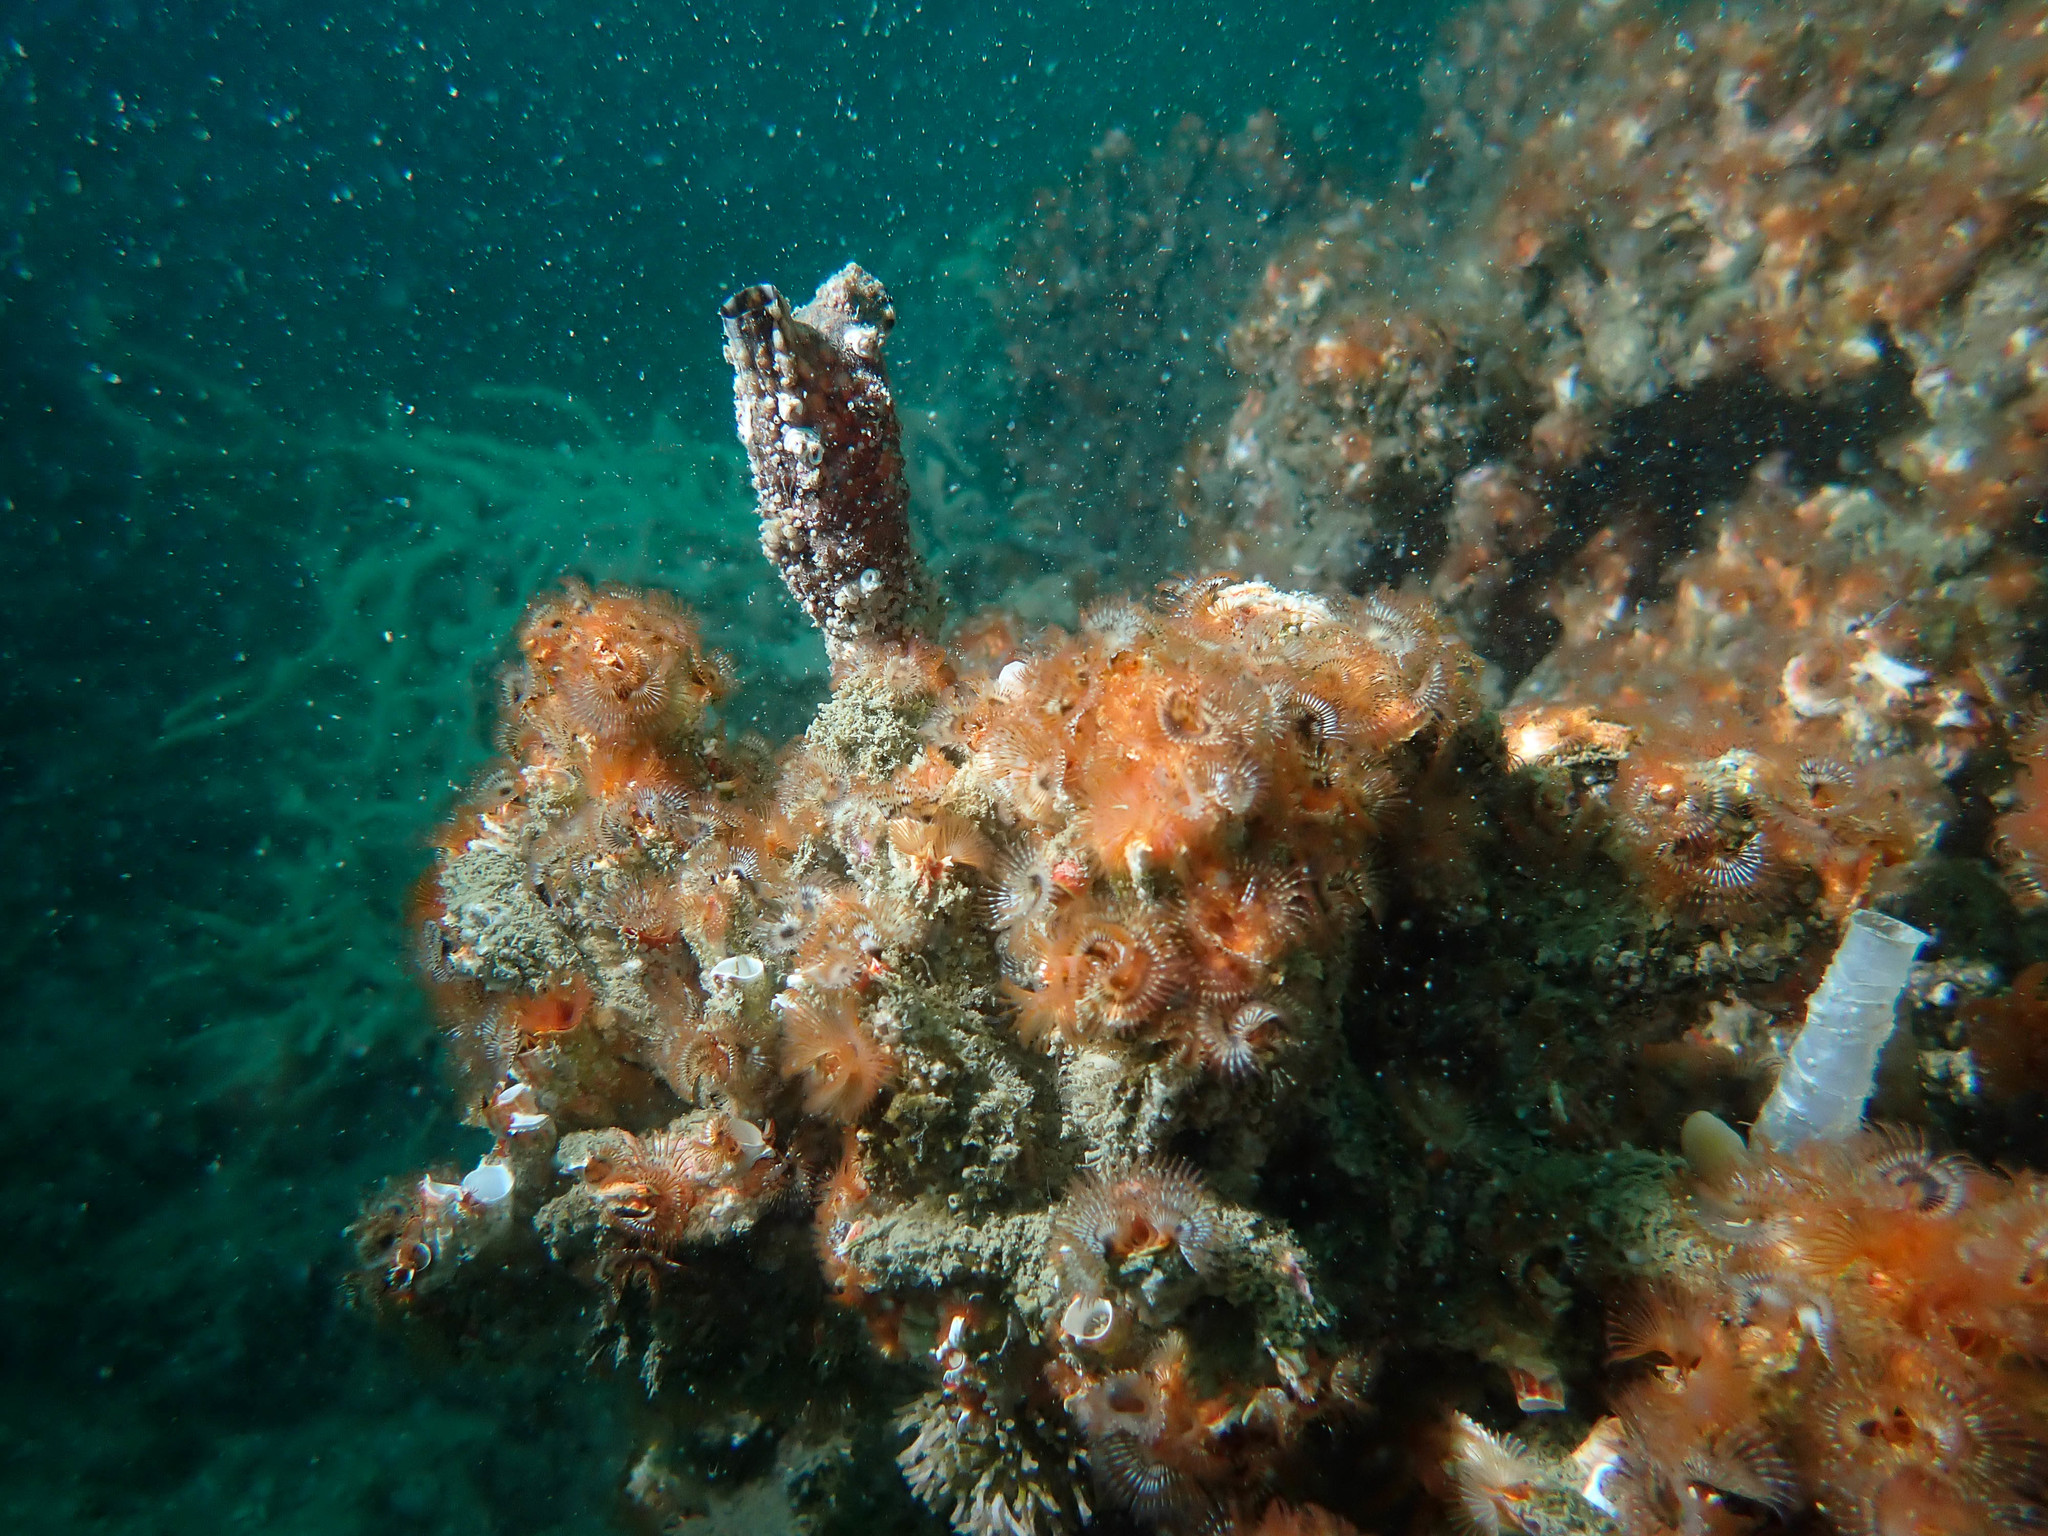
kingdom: Animalia
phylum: Annelida
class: Polychaeta
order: Sabellida
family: Serpulidae
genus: Galeolaria
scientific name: Galeolaria hystrix
